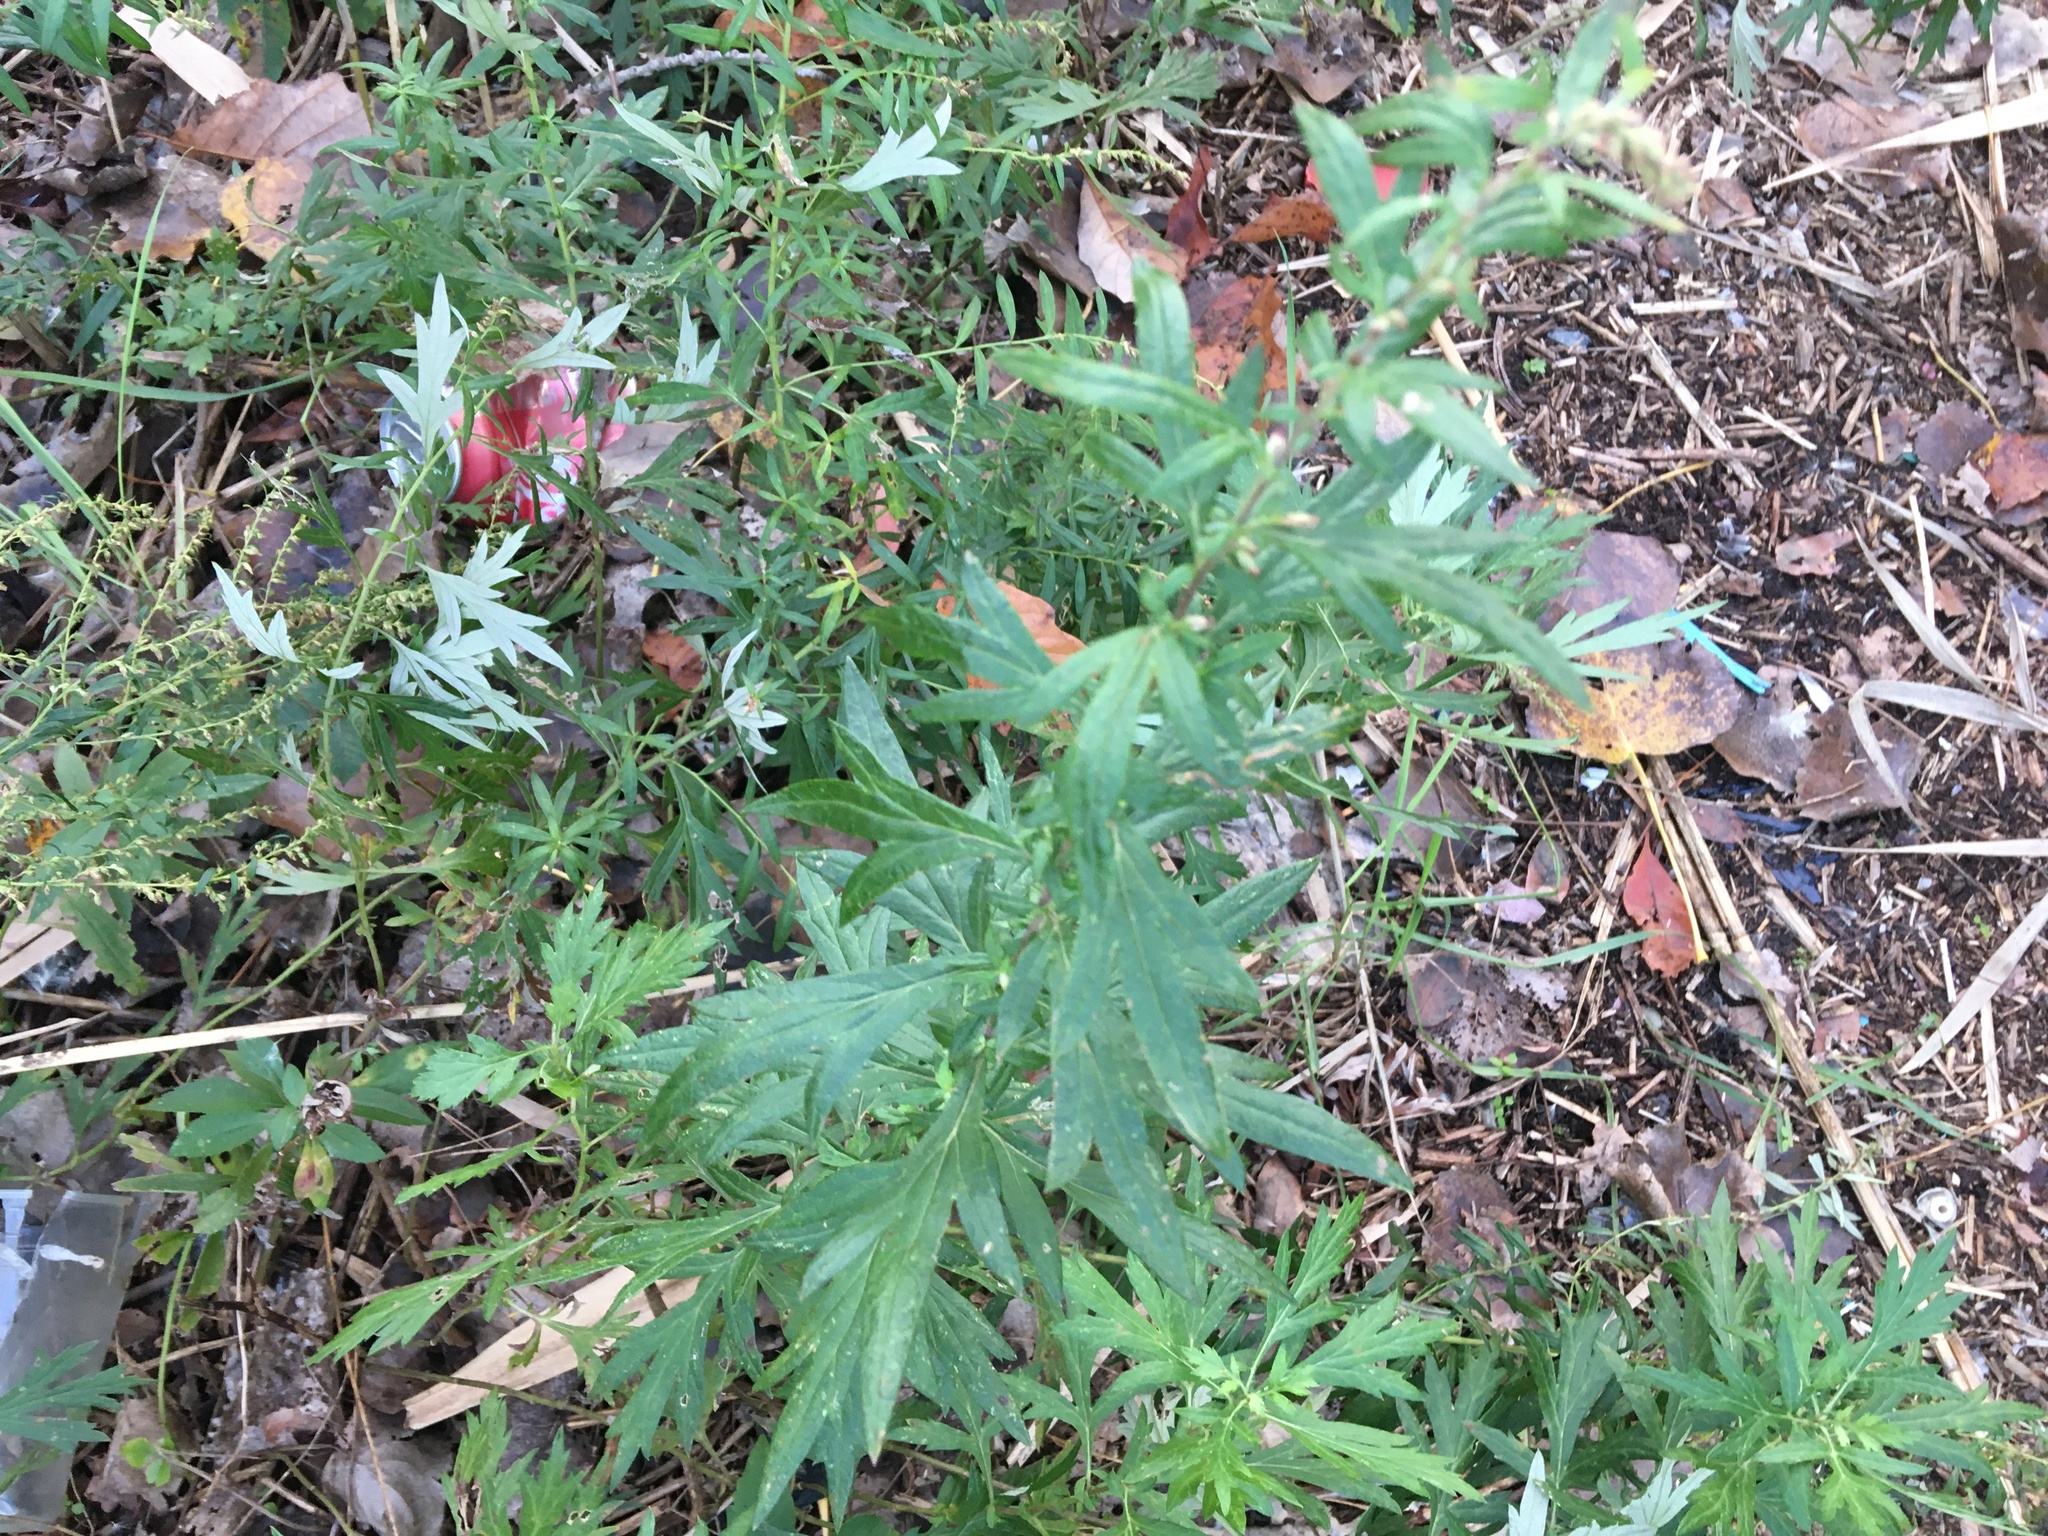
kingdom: Plantae
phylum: Tracheophyta
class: Magnoliopsida
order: Asterales
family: Asteraceae
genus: Artemisia
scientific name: Artemisia vulgaris
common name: Mugwort
